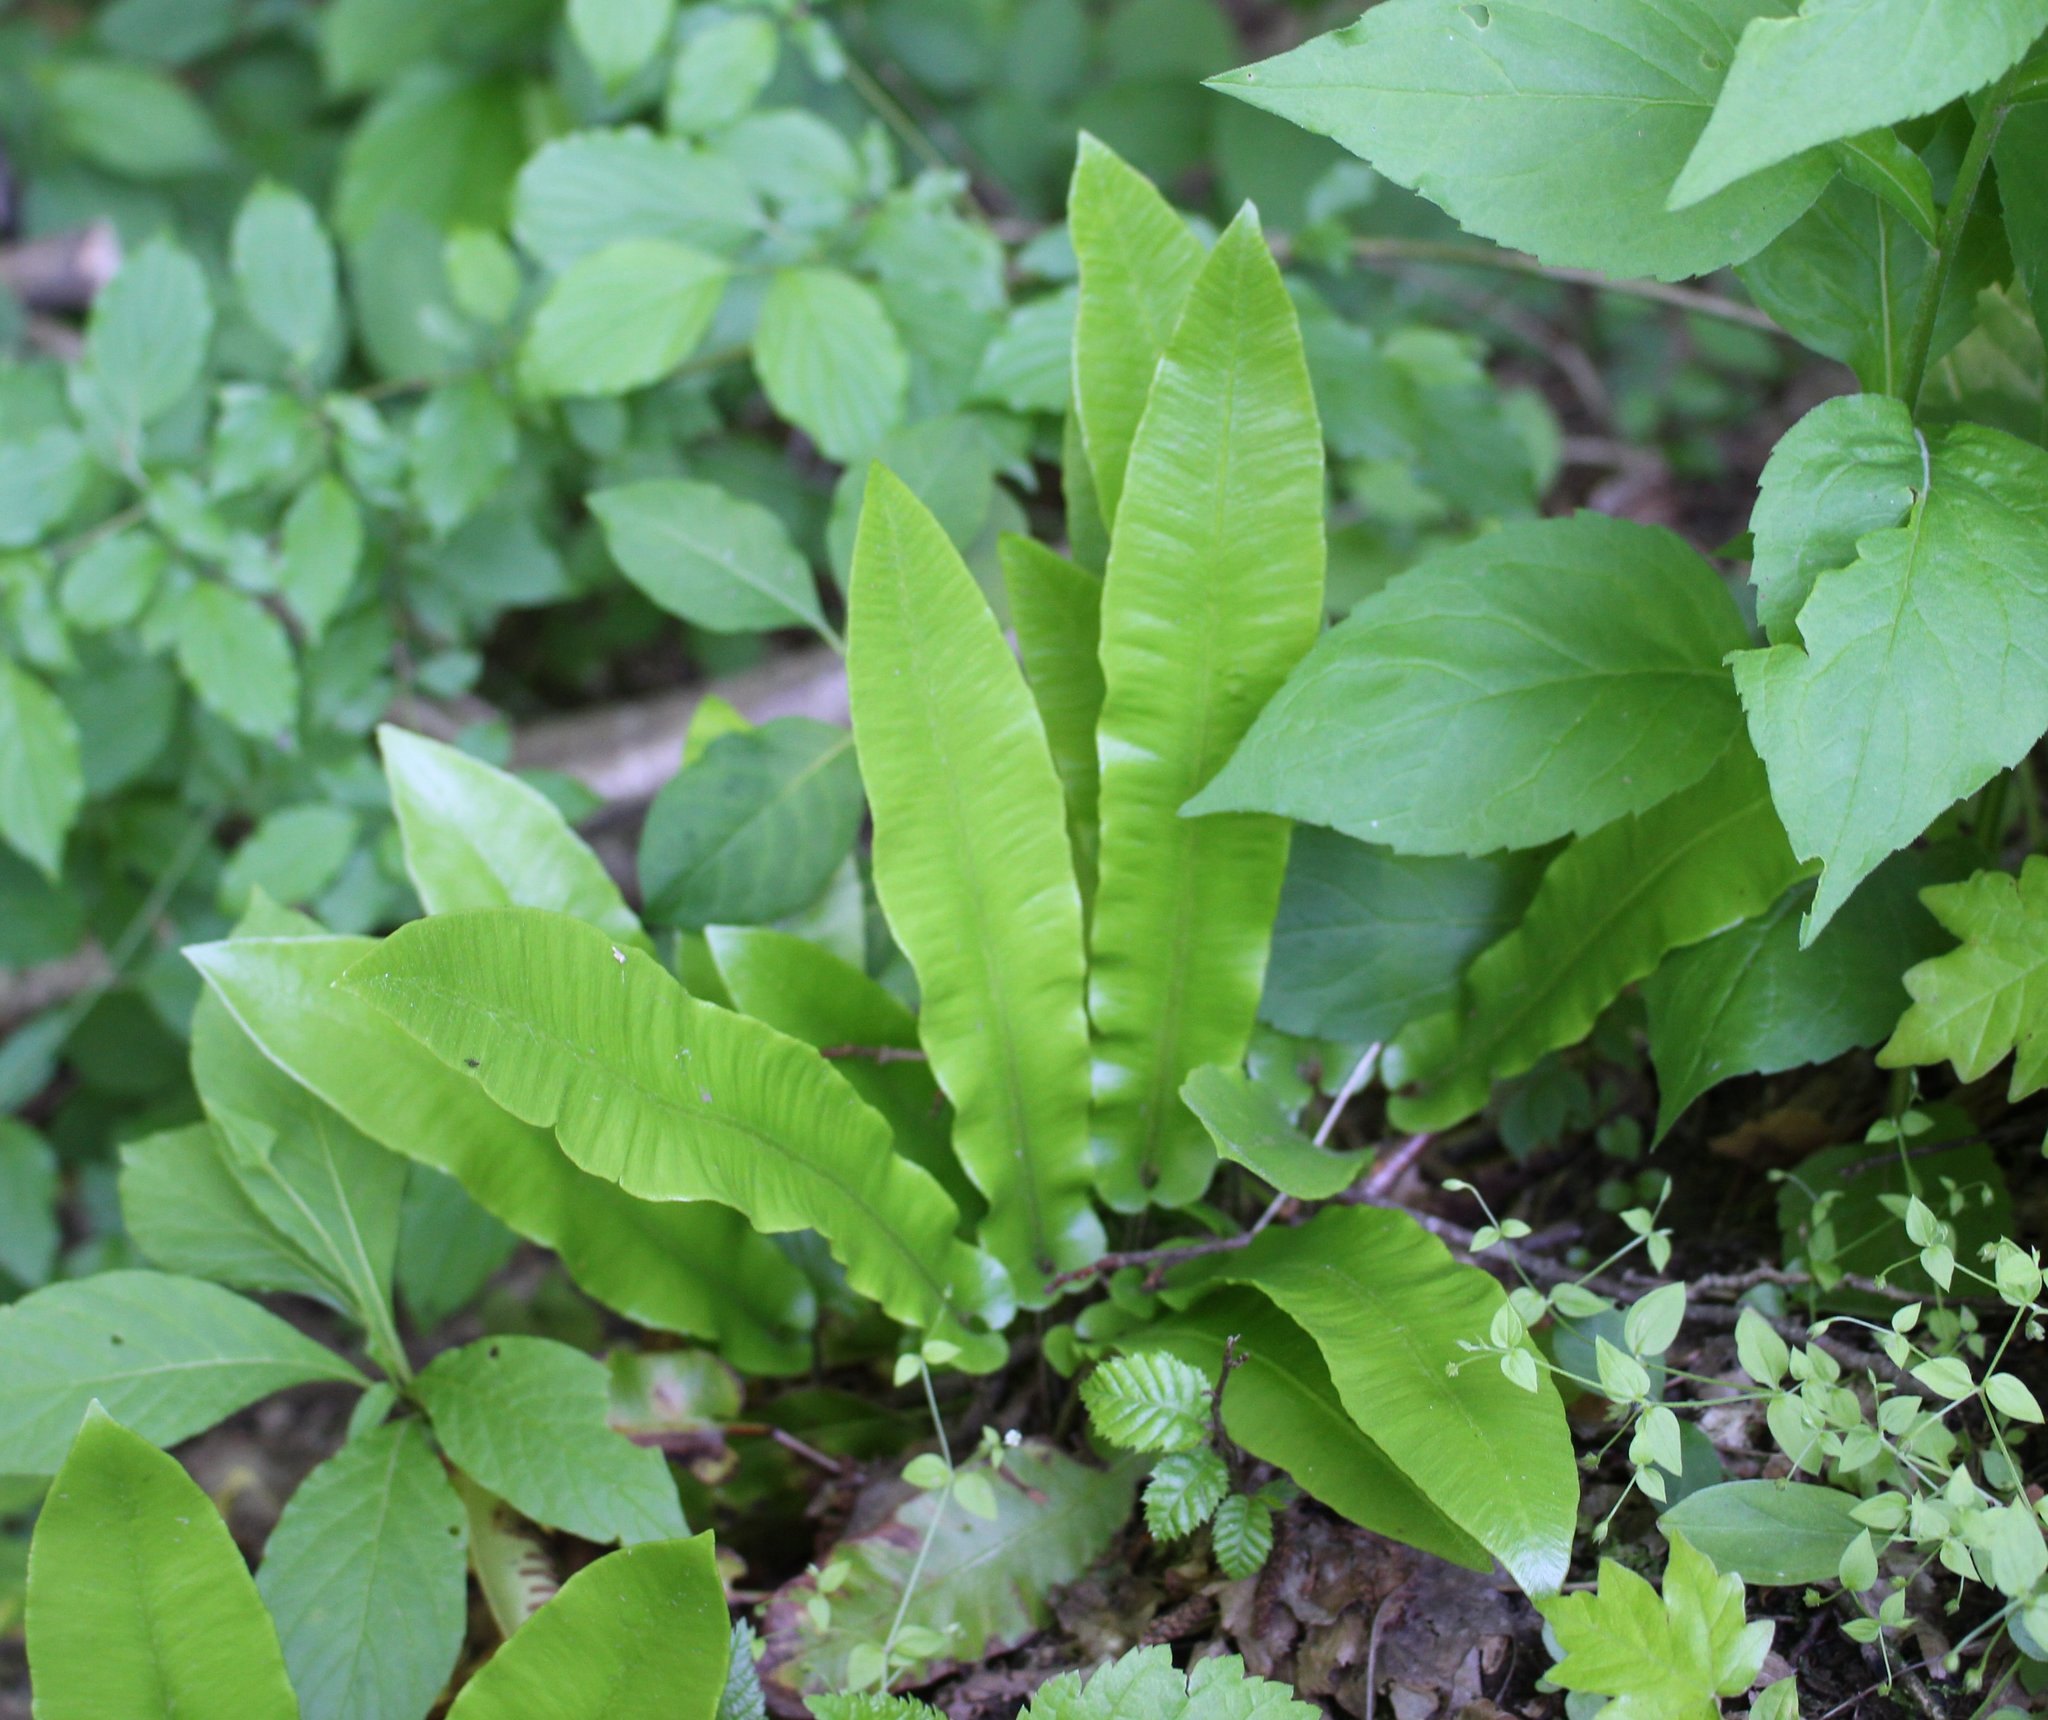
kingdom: Plantae
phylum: Tracheophyta
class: Polypodiopsida
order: Polypodiales
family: Aspleniaceae
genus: Asplenium
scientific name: Asplenium scolopendrium
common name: Hart's-tongue fern
